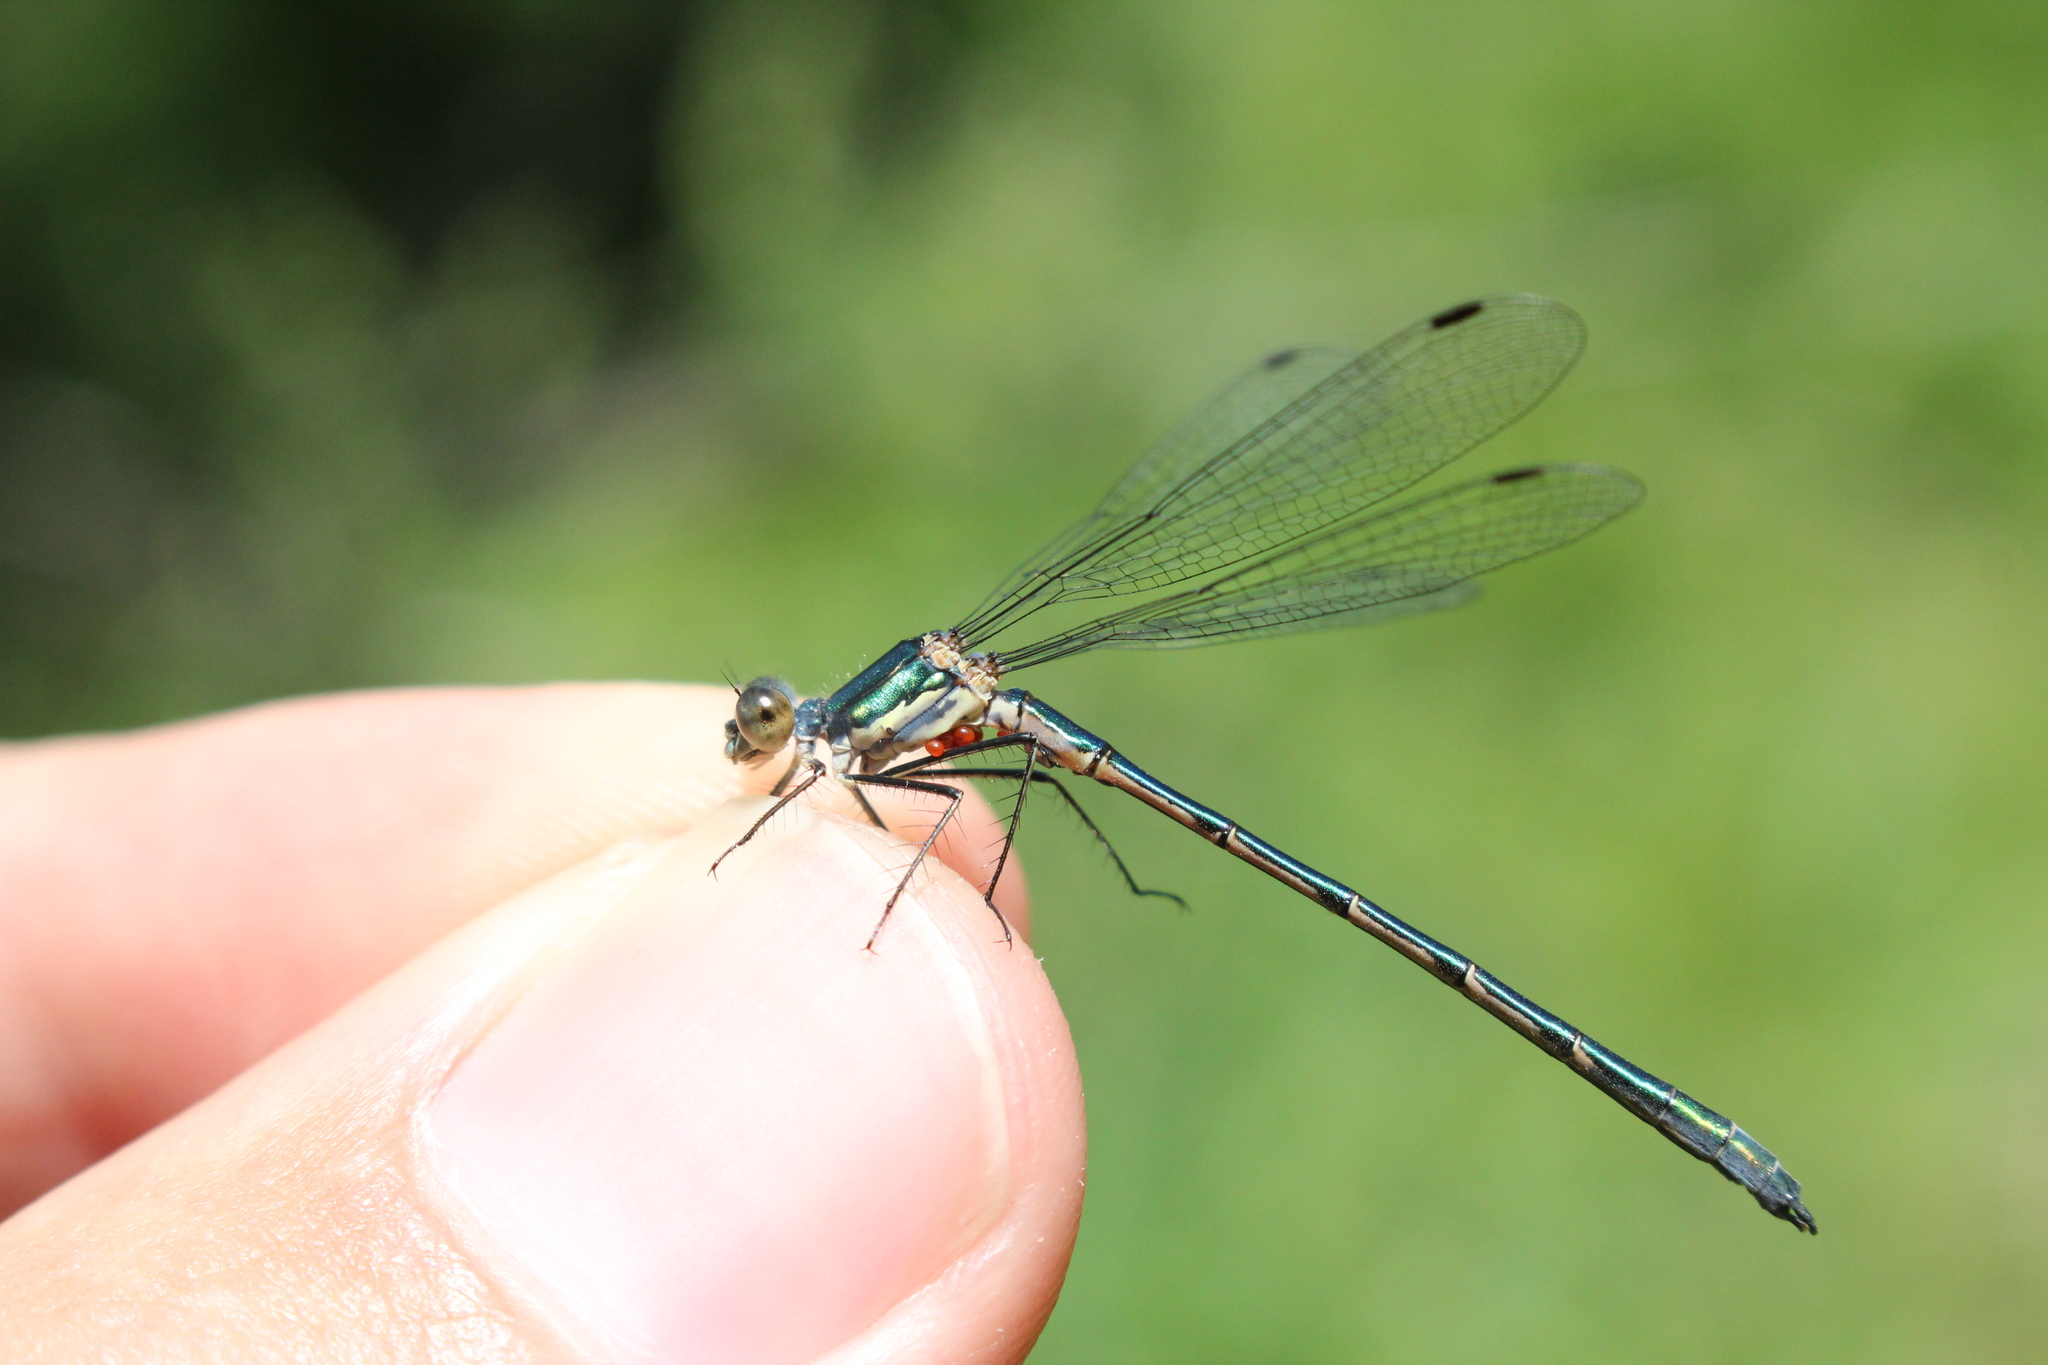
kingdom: Animalia
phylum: Arthropoda
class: Insecta
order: Odonata
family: Lestidae
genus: Lestes
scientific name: Lestes dryas
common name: Scarce emerald damselfly
